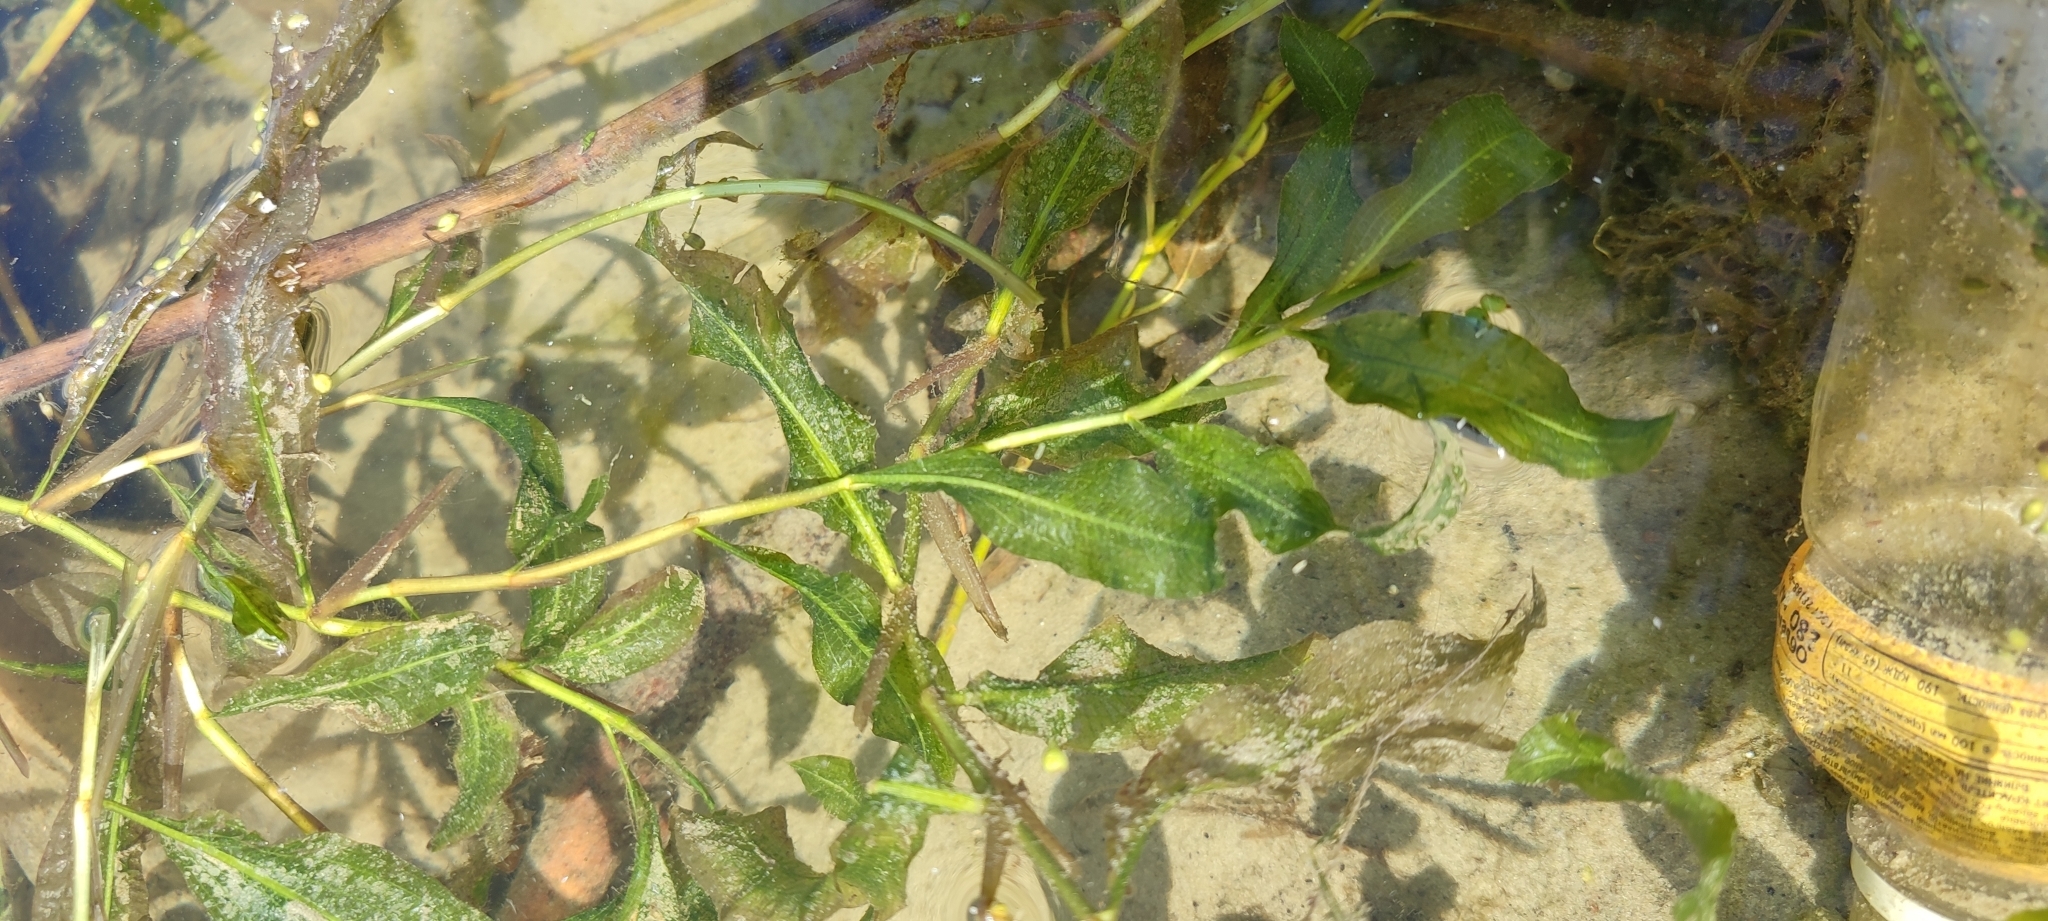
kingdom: Plantae
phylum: Tracheophyta
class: Liliopsida
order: Alismatales
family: Potamogetonaceae
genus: Potamogeton
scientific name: Potamogeton lucens
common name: Shining pondweed
